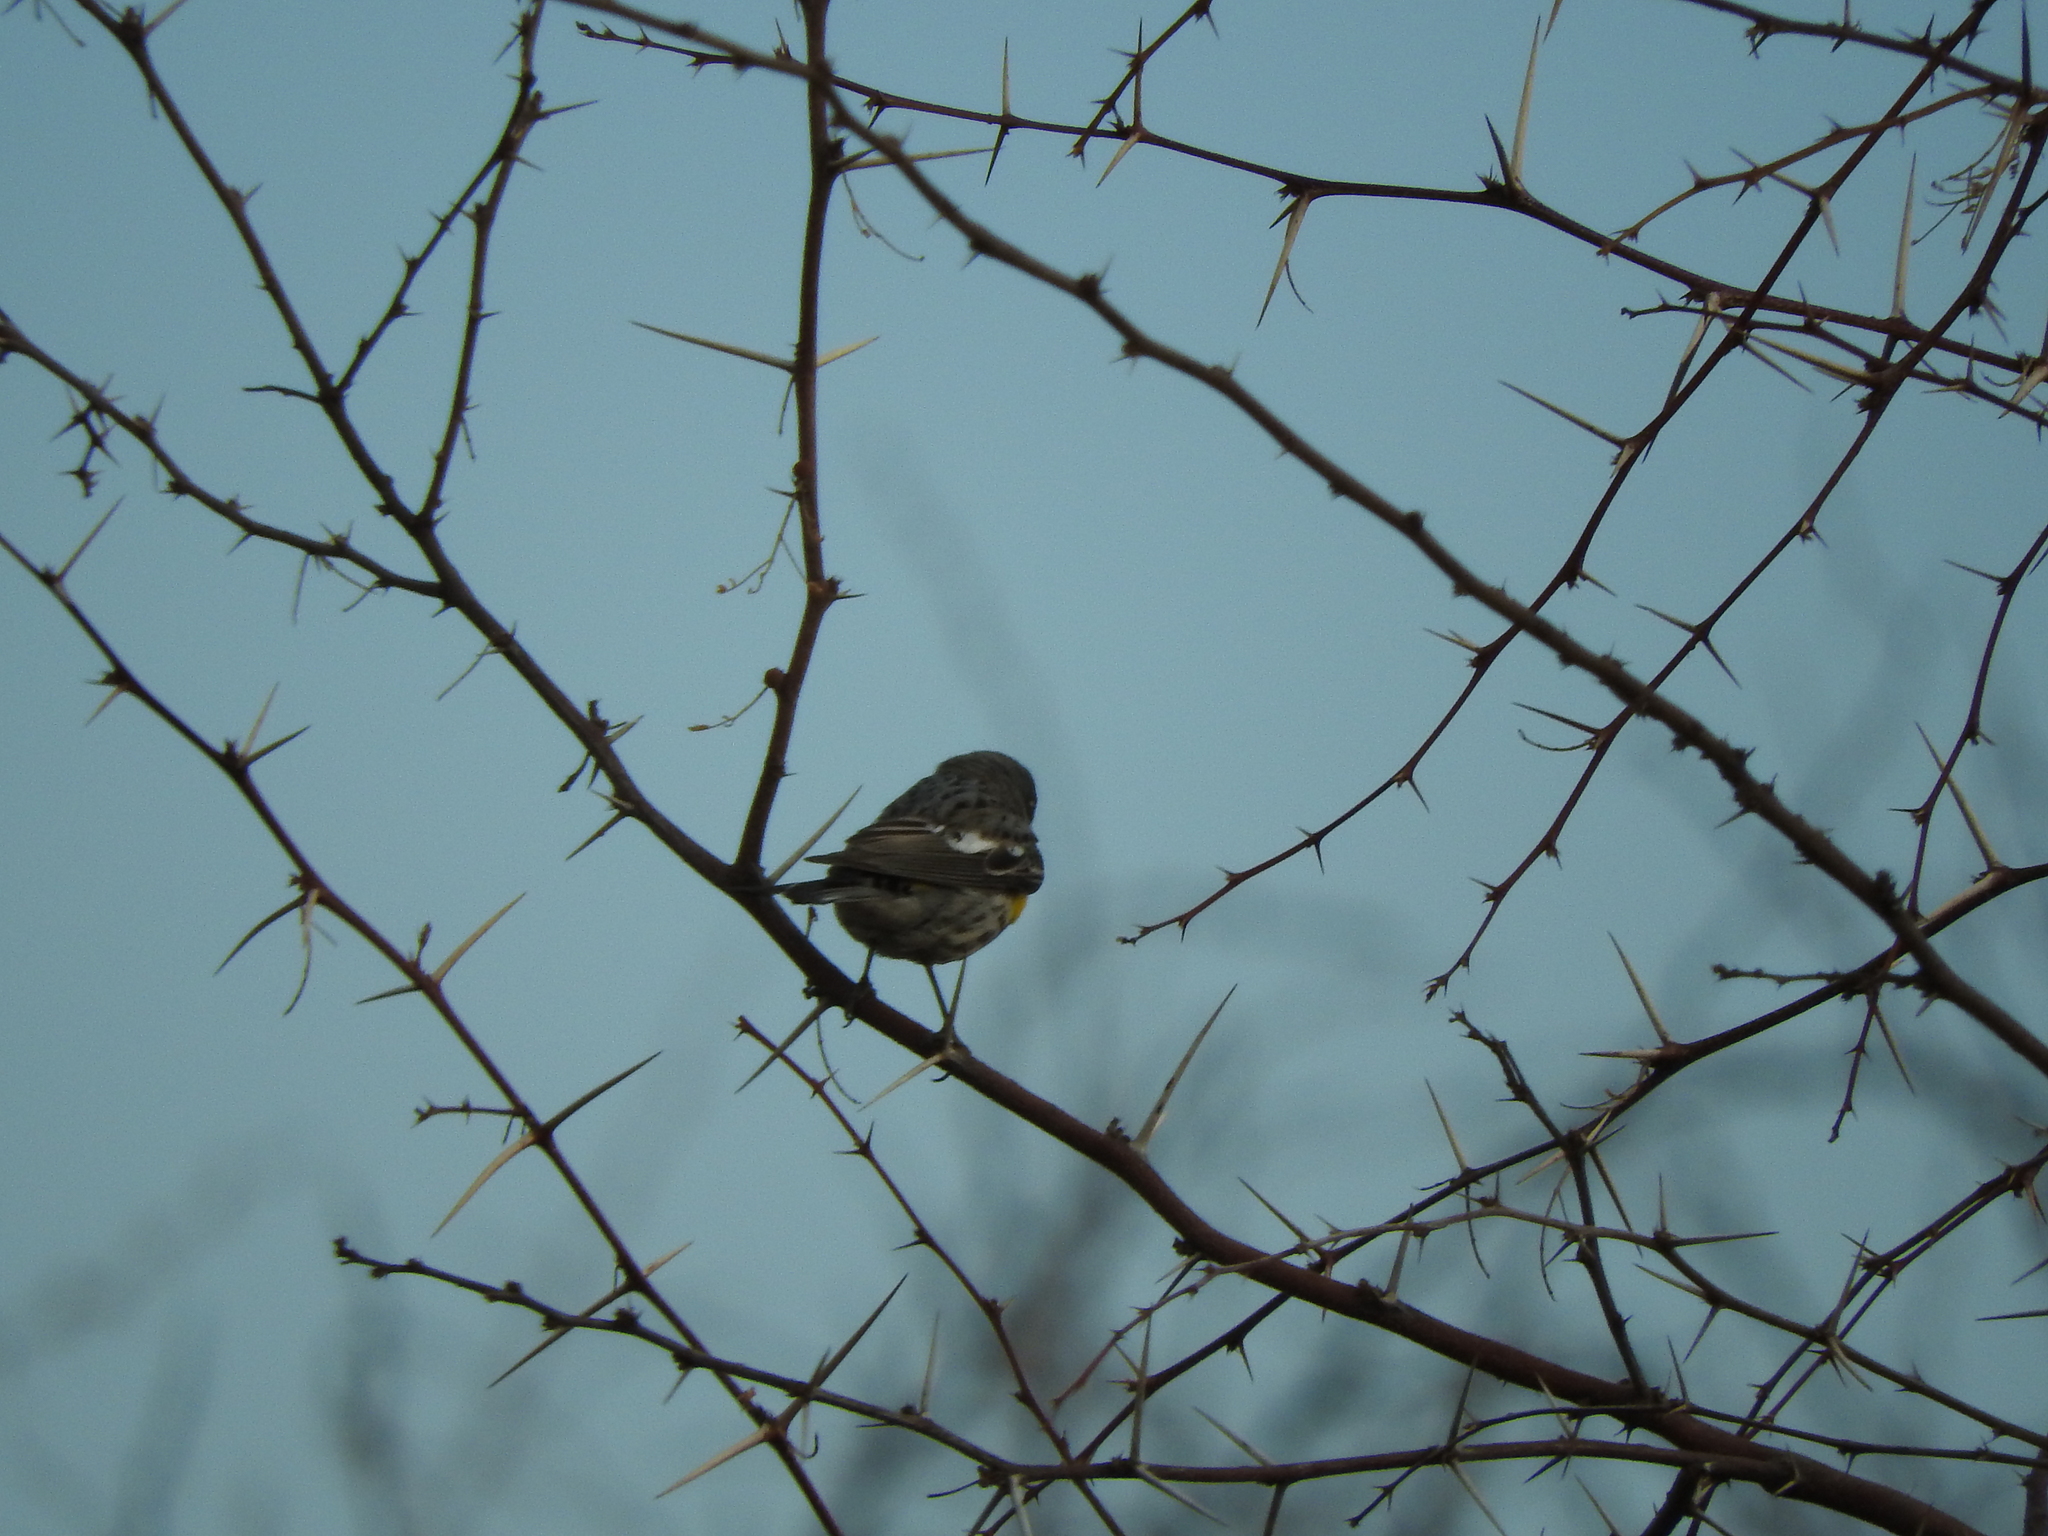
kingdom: Animalia
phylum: Chordata
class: Aves
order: Passeriformes
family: Parulidae
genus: Setophaga
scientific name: Setophaga coronata
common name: Myrtle warbler
